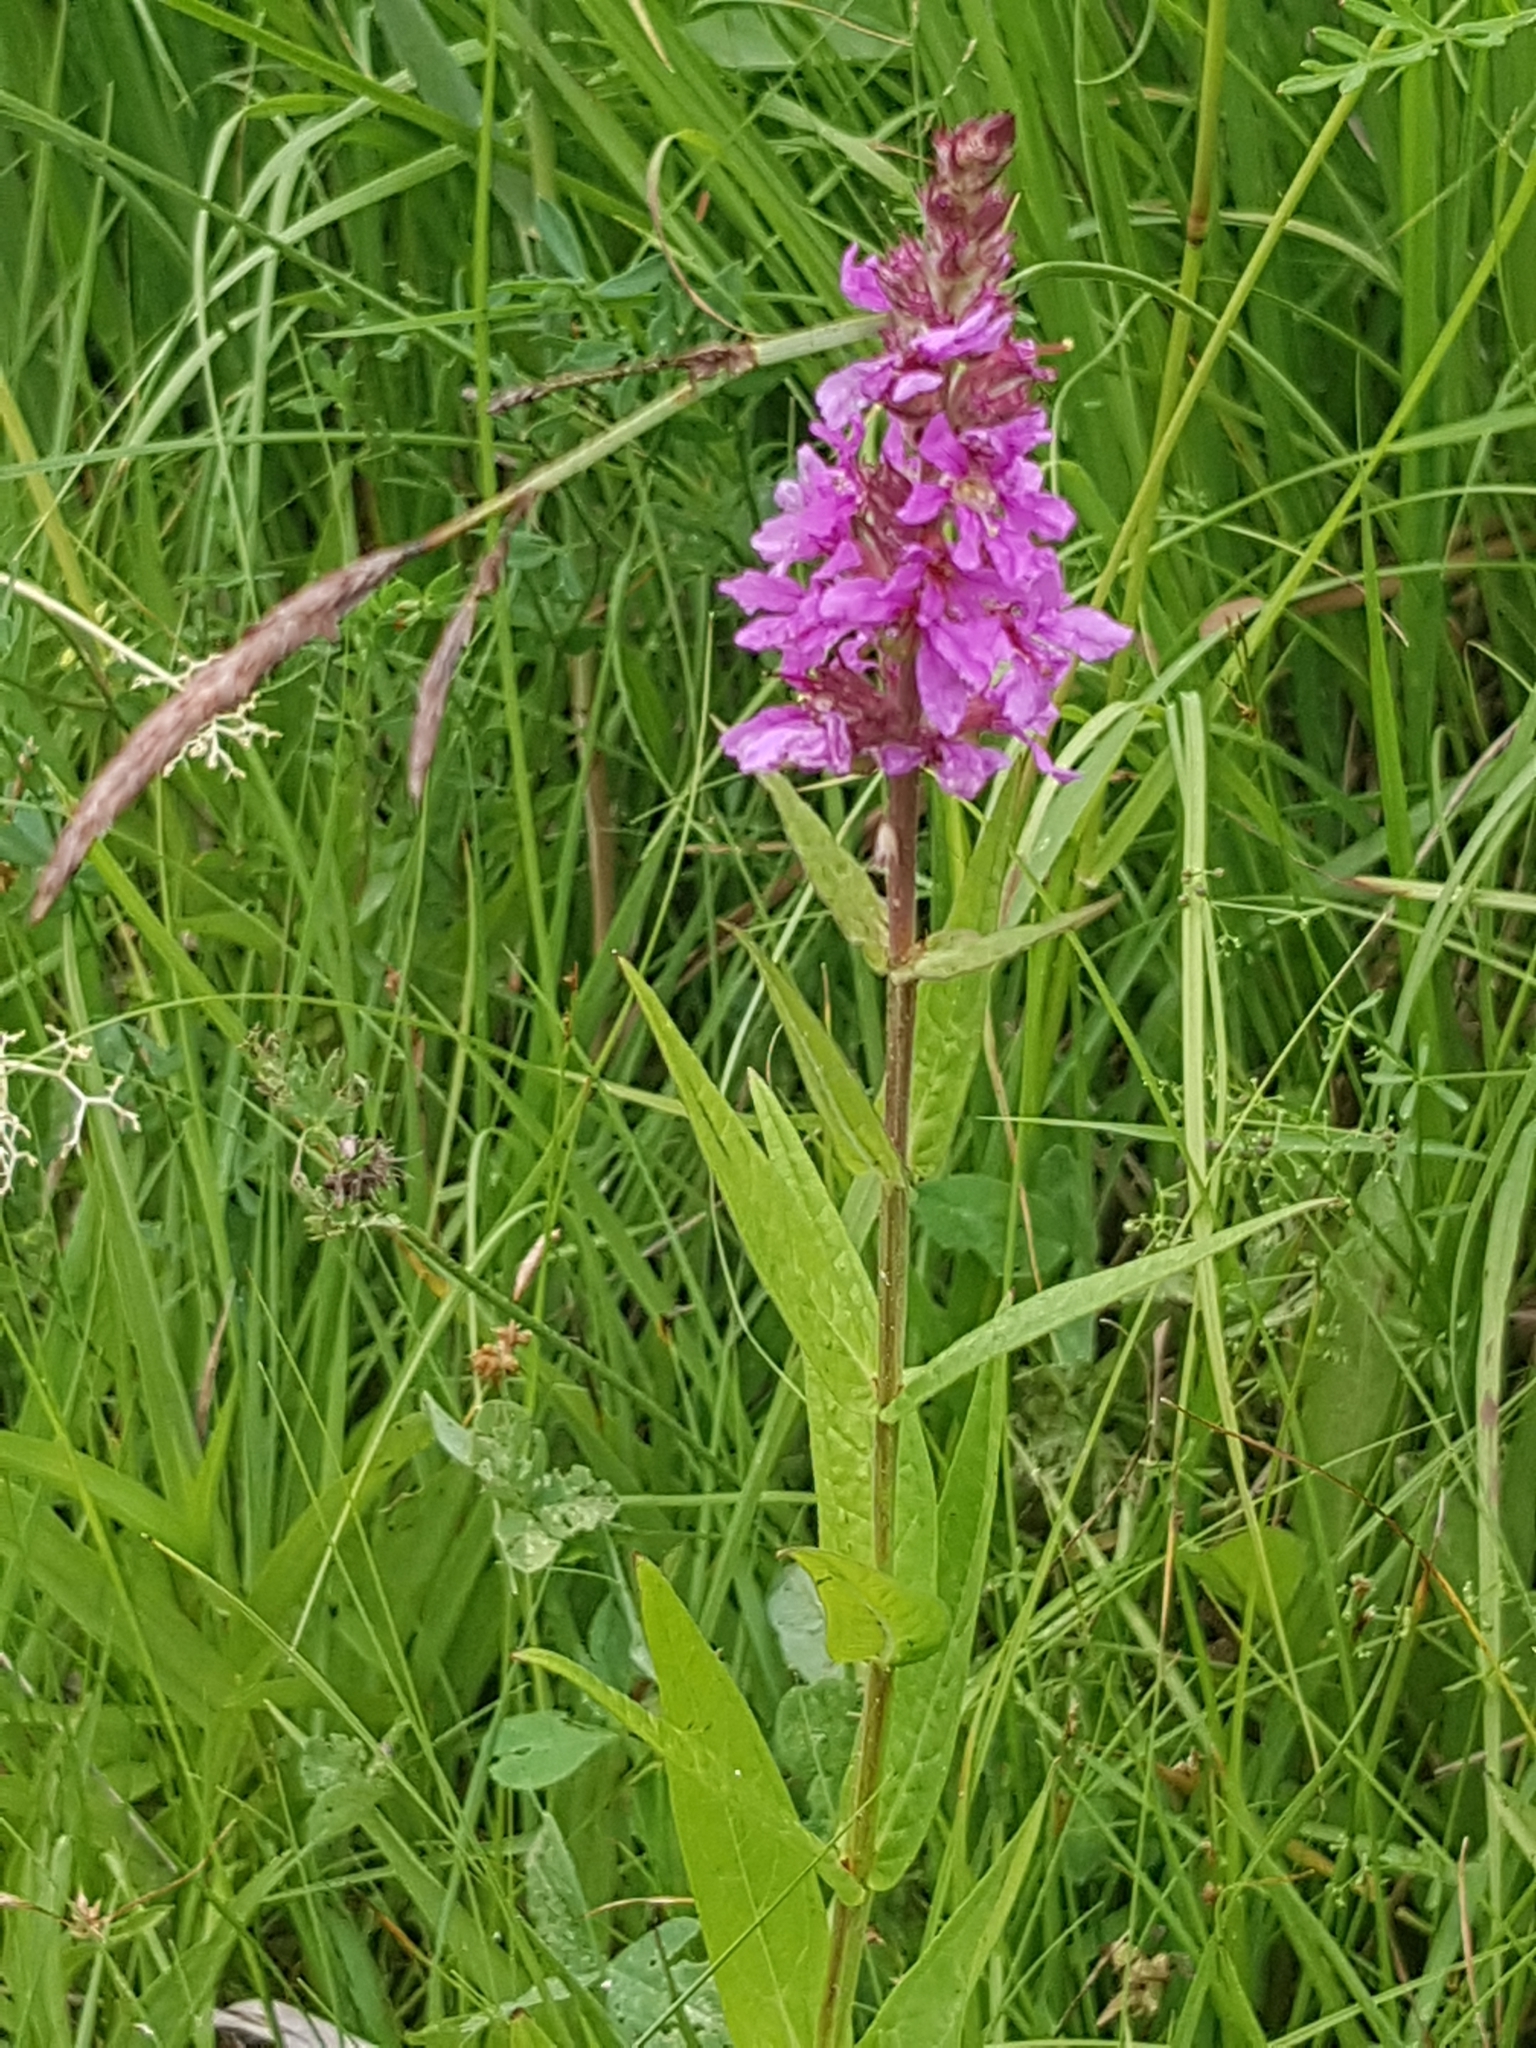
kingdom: Plantae
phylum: Tracheophyta
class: Magnoliopsida
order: Myrtales
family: Lythraceae
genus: Lythrum
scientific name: Lythrum salicaria
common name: Purple loosestrife
